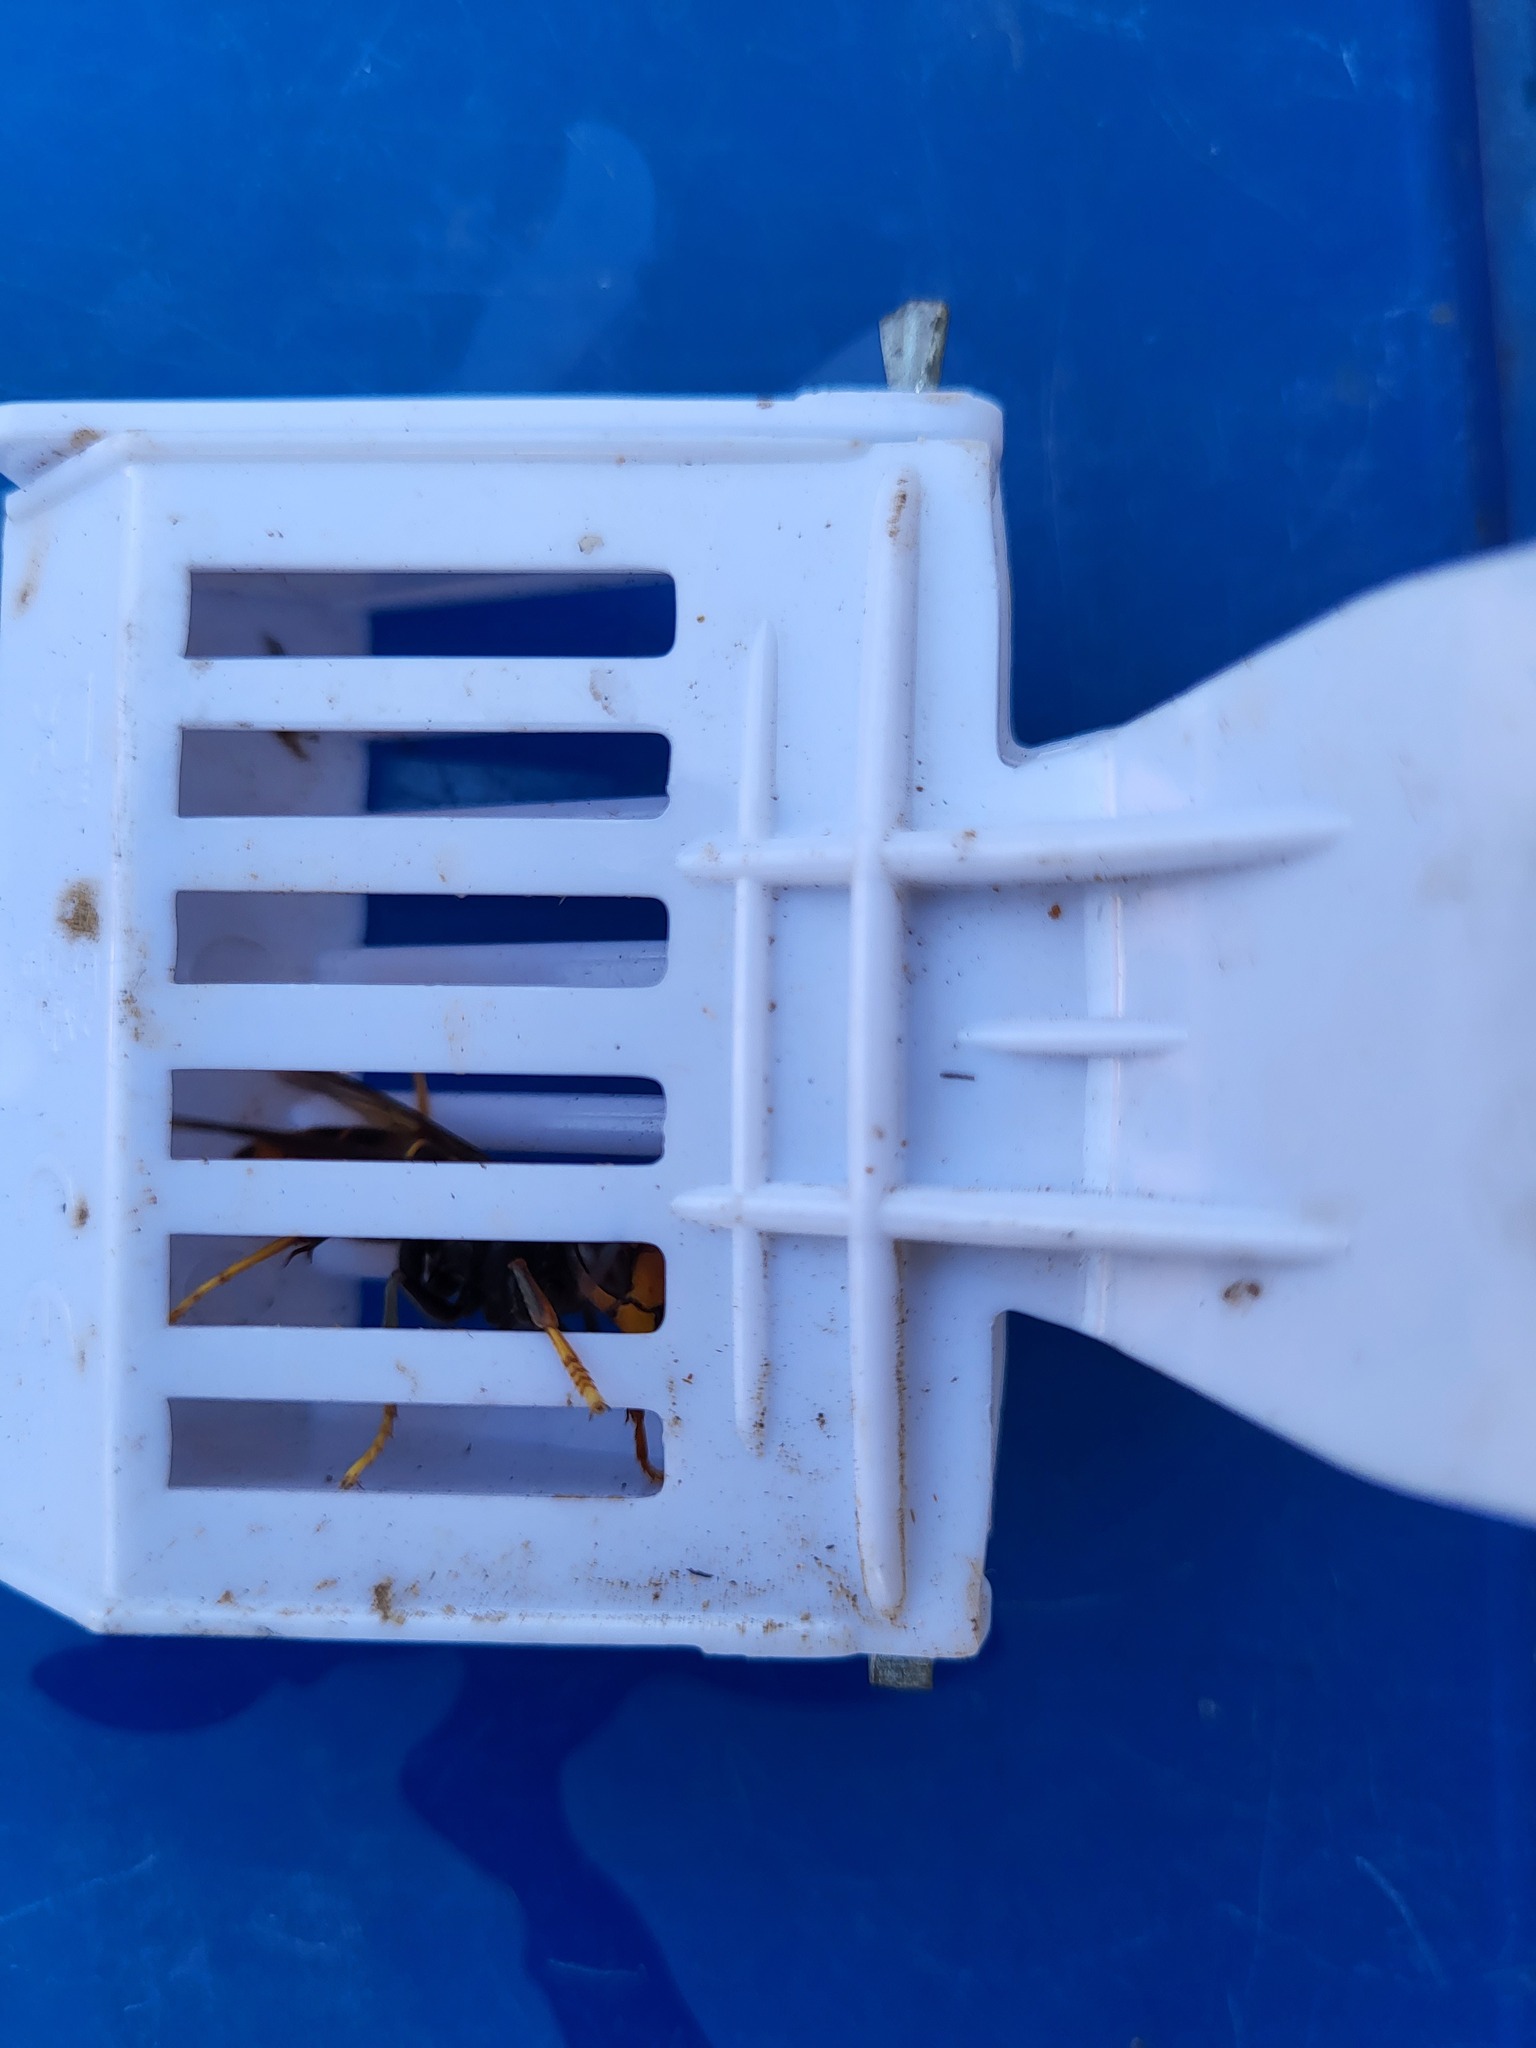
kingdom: Animalia
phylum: Arthropoda
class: Insecta
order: Hymenoptera
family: Vespidae
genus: Vespa
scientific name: Vespa velutina
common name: Asian hornet
